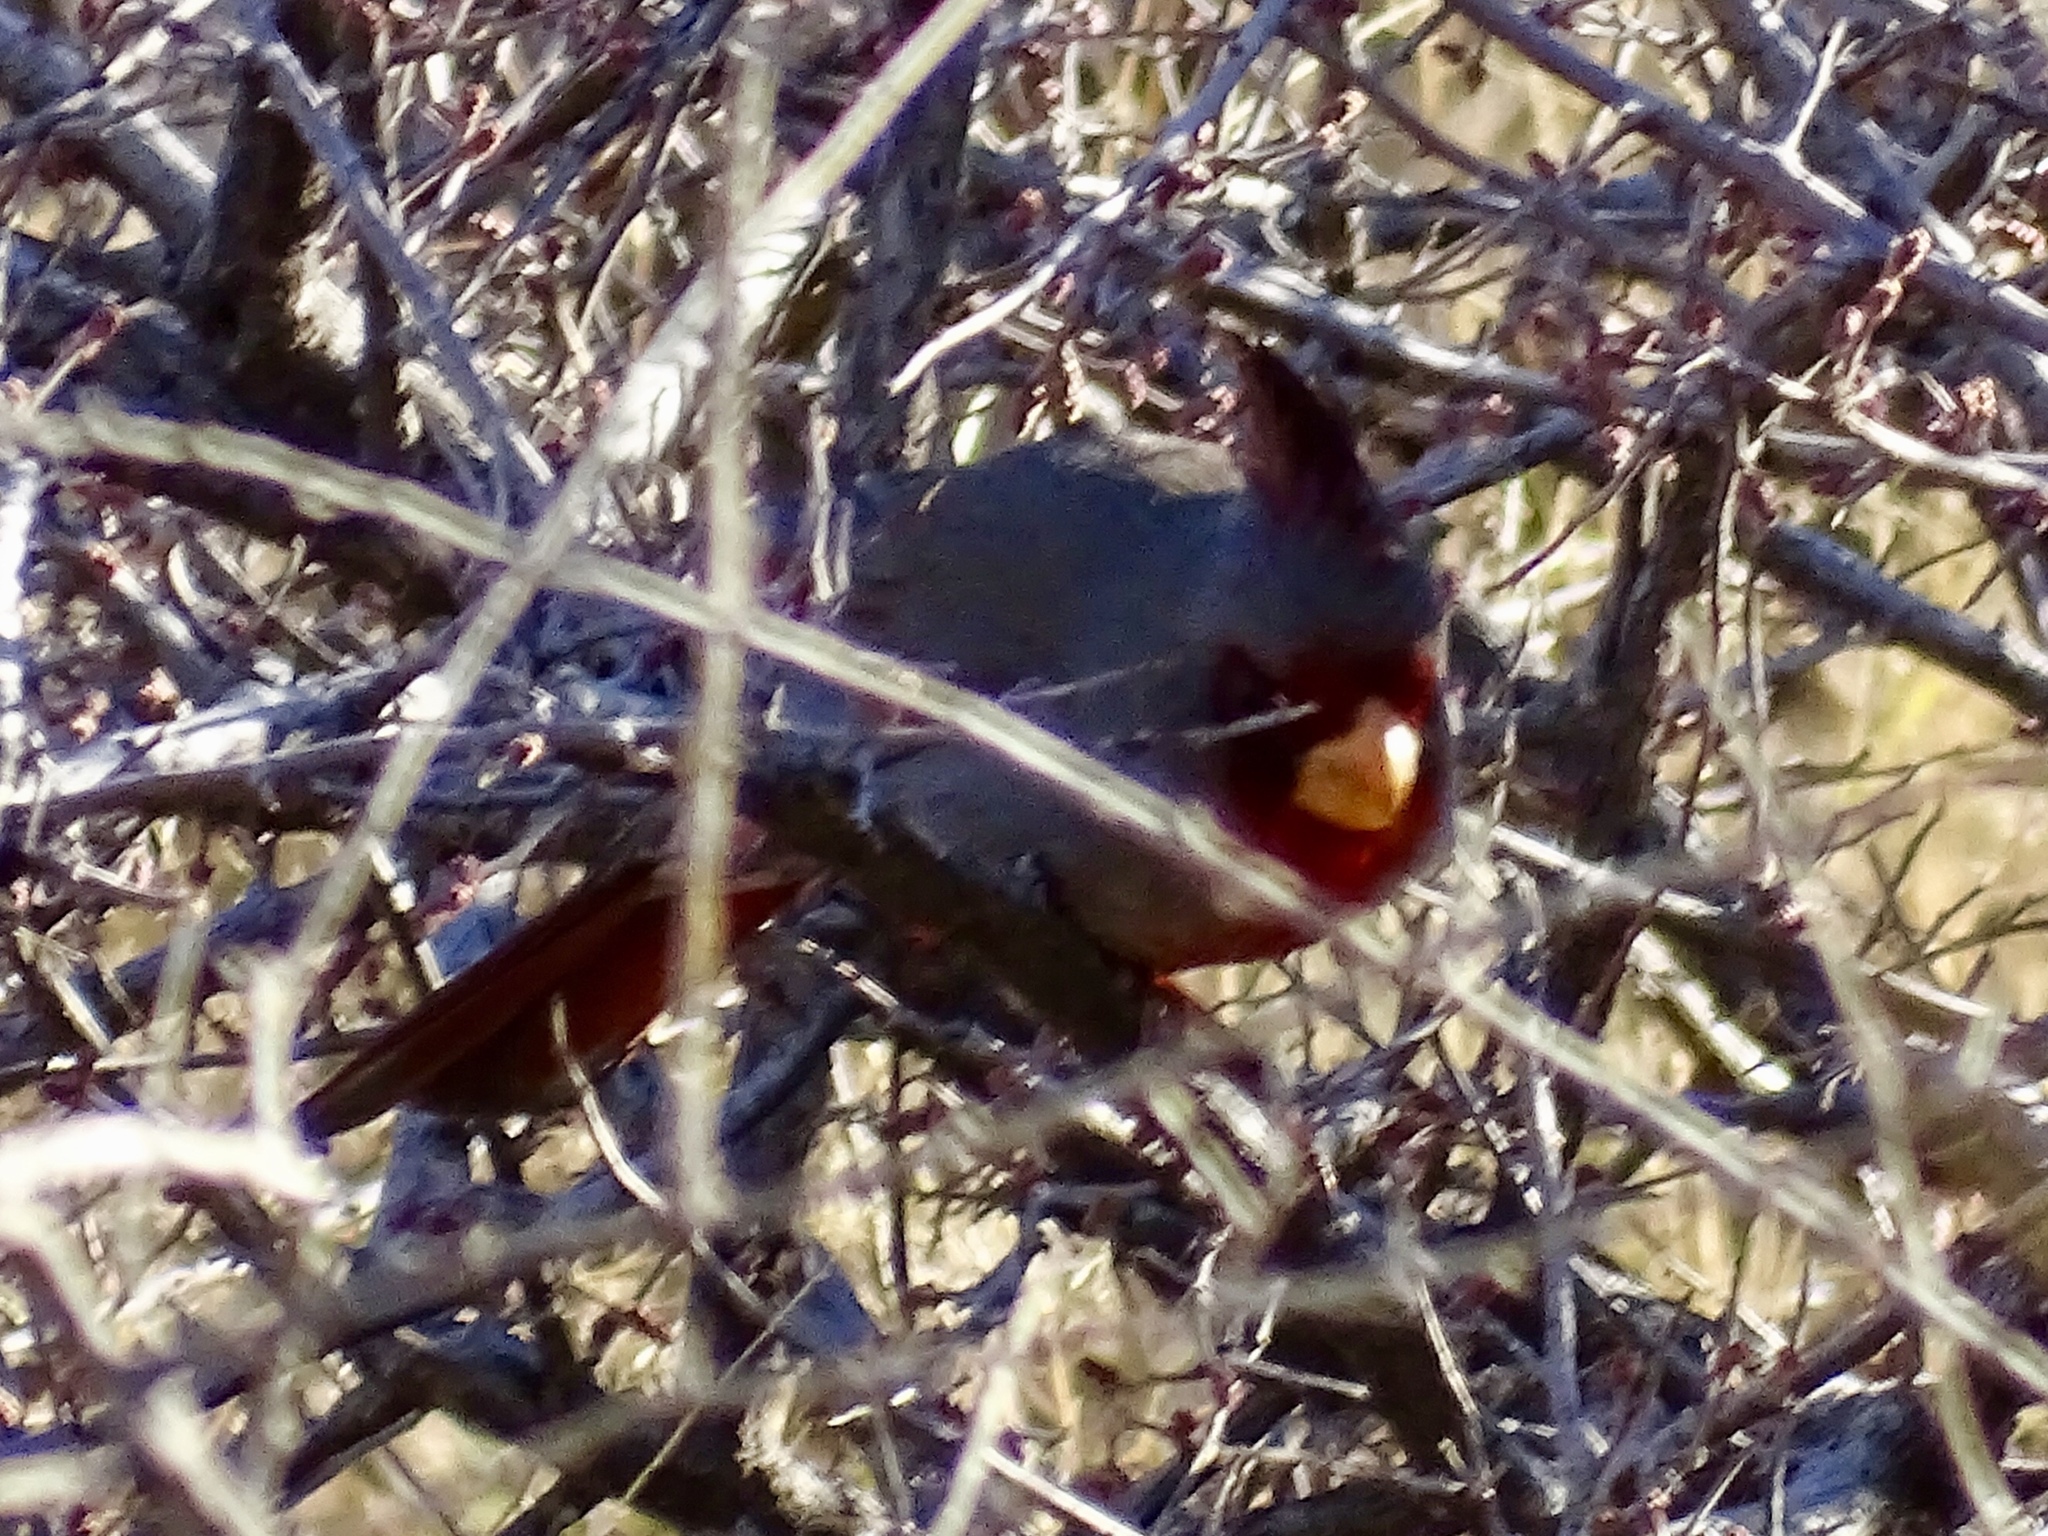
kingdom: Animalia
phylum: Chordata
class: Aves
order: Passeriformes
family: Cardinalidae
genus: Cardinalis
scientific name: Cardinalis sinuatus
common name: Pyrrhuloxia
